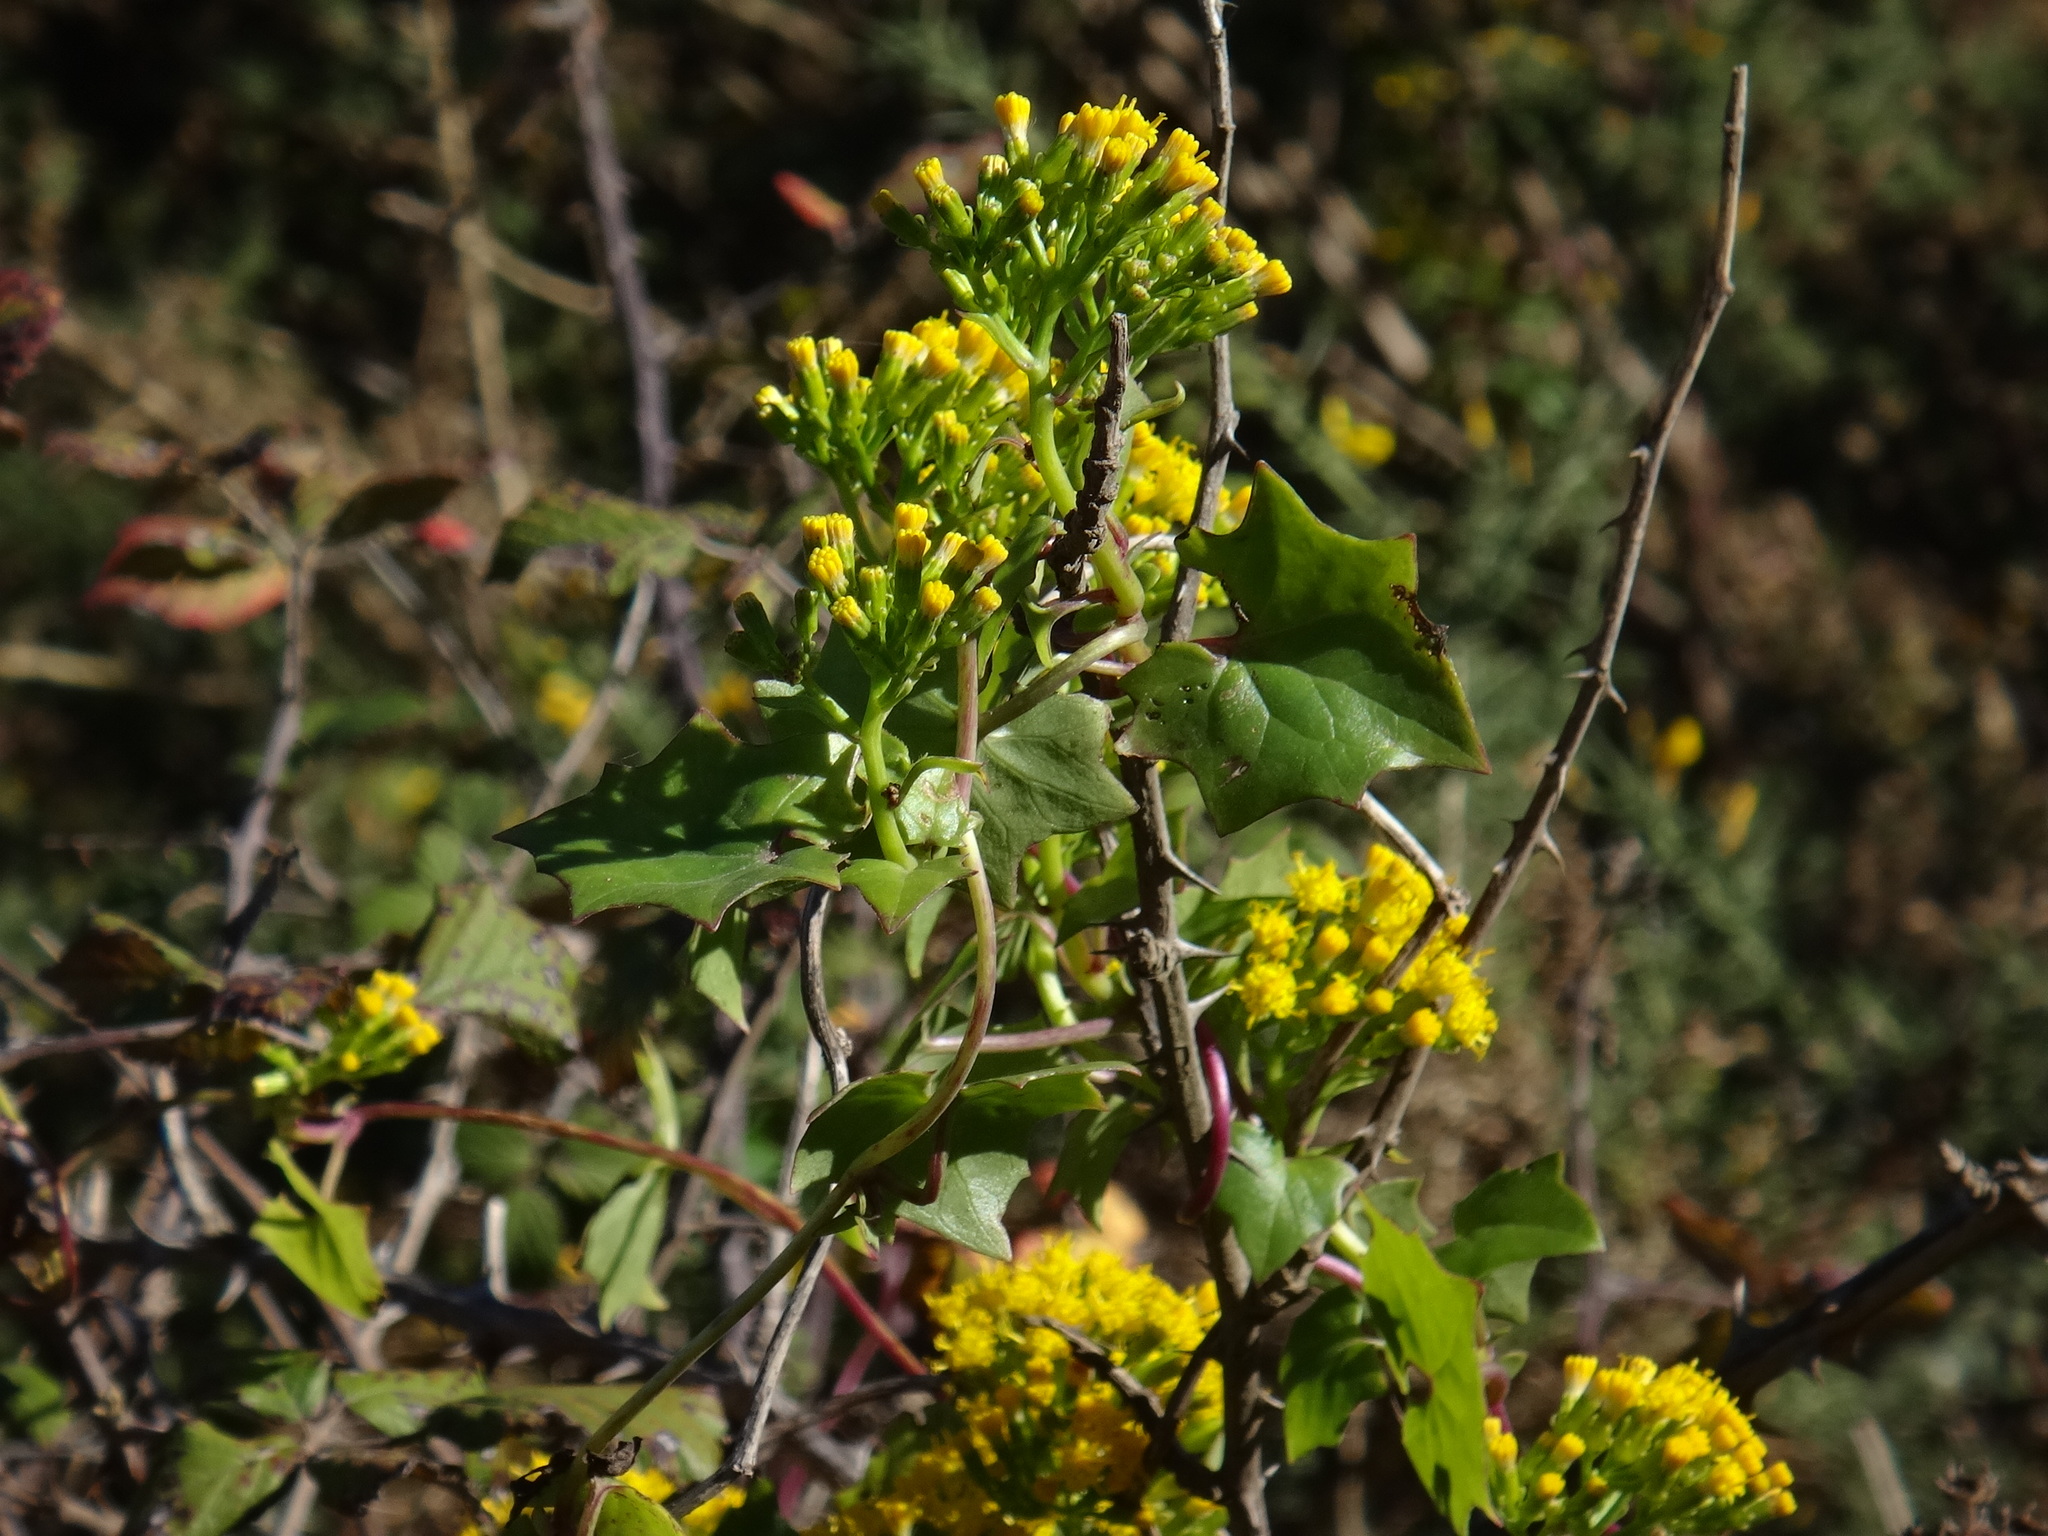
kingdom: Plantae
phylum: Tracheophyta
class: Magnoliopsida
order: Asterales
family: Asteraceae
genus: Delairea
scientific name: Delairea odorata
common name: Cape-ivy
